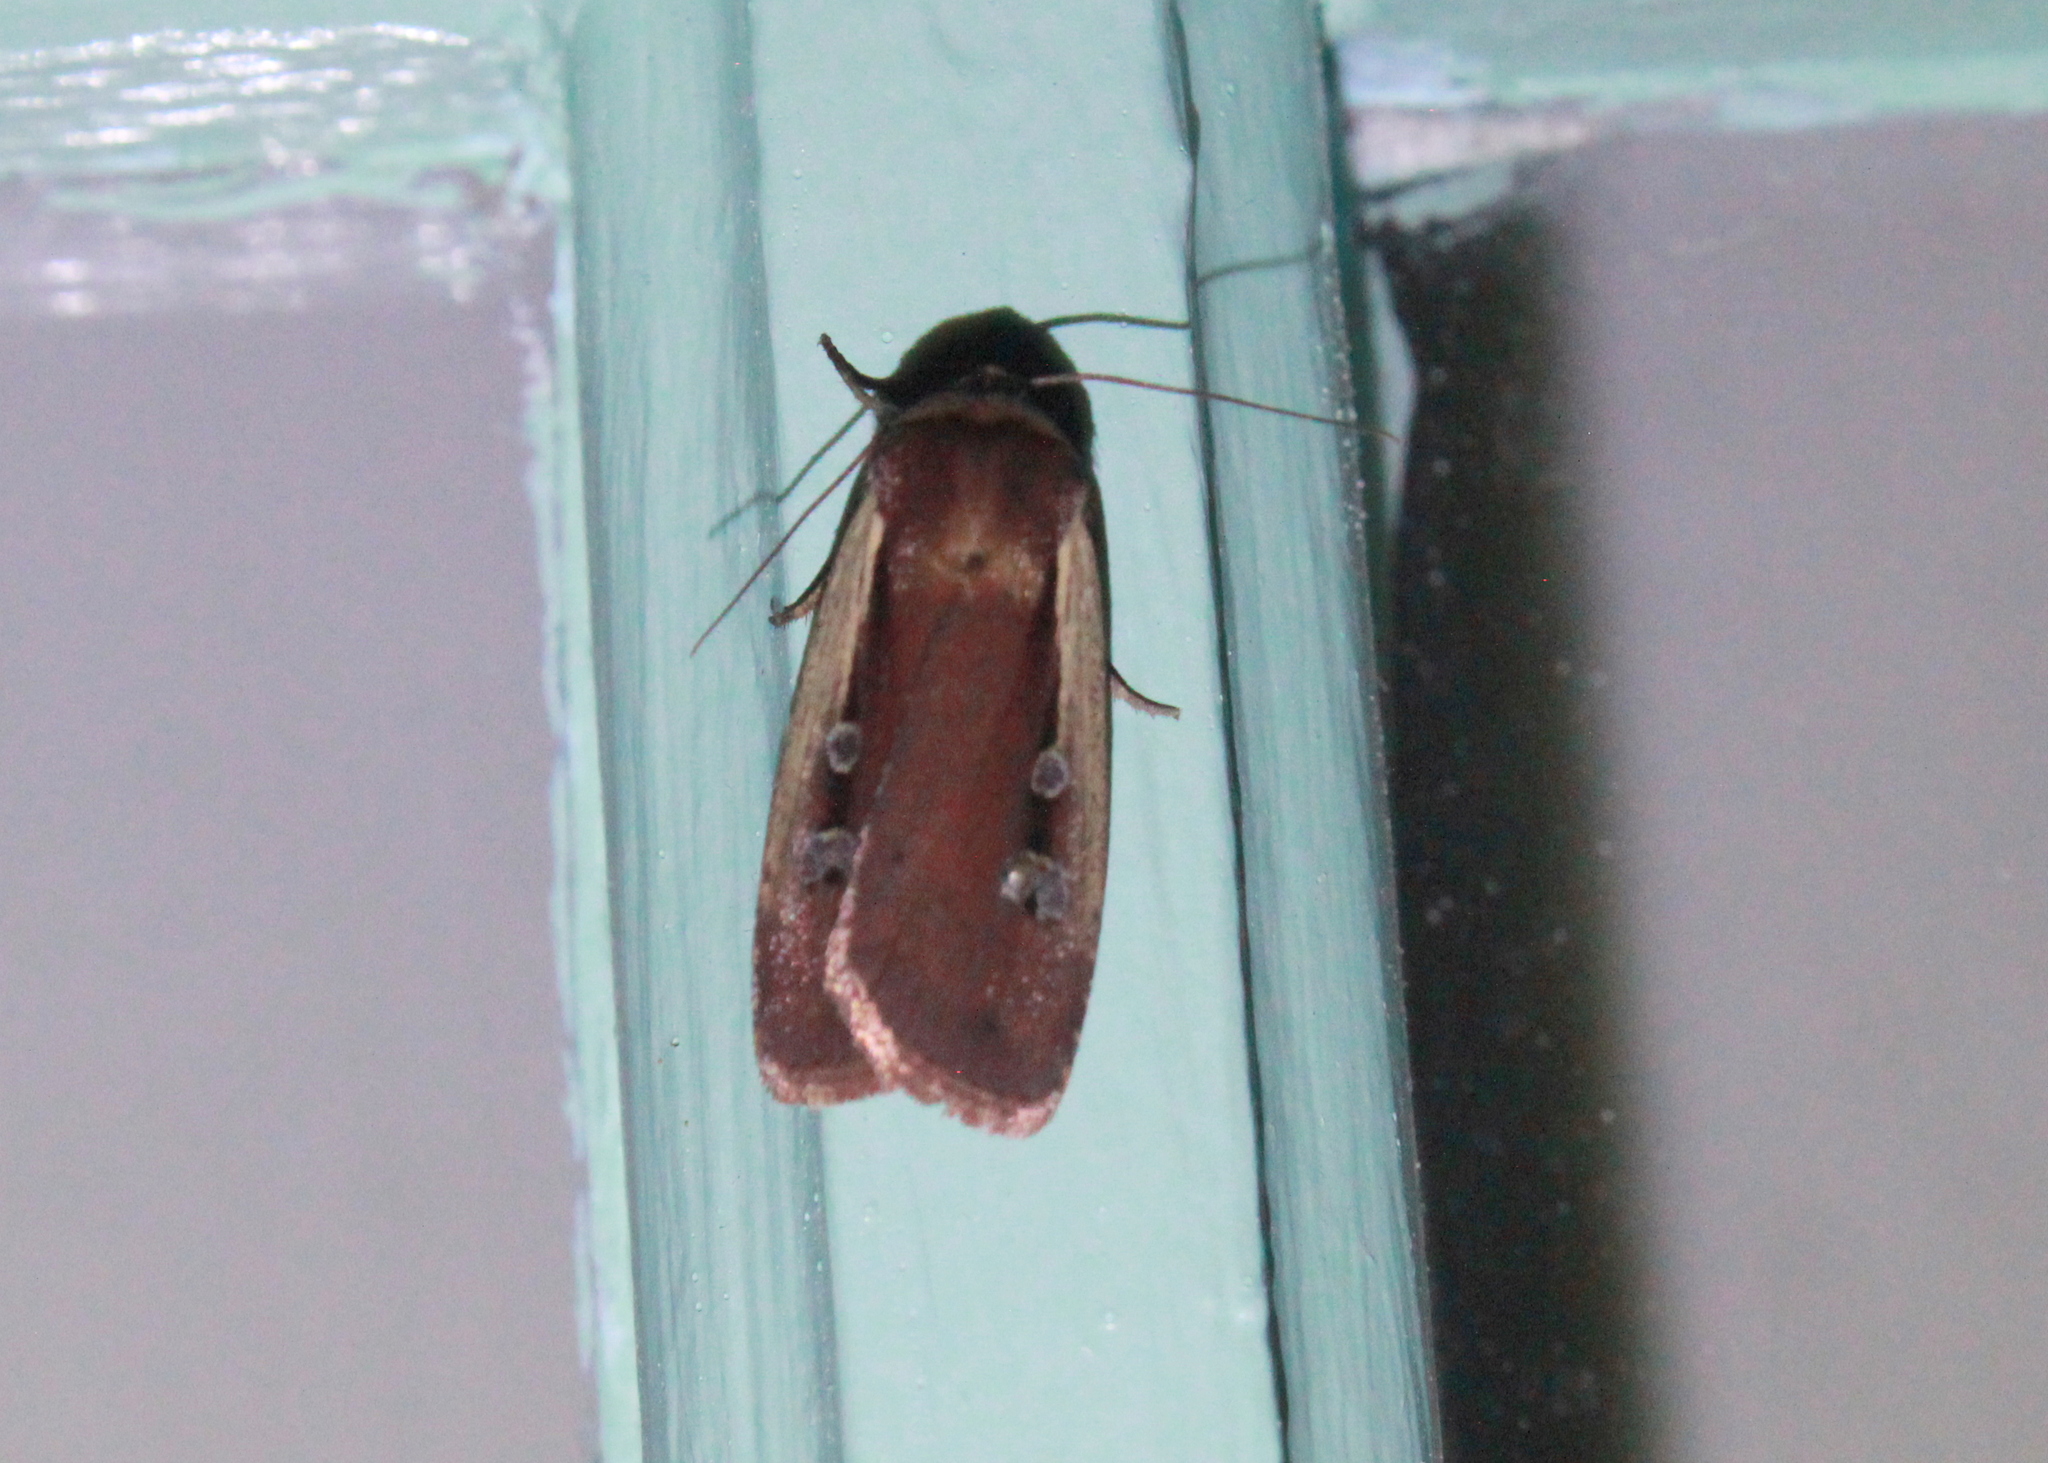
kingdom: Animalia
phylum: Arthropoda
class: Insecta
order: Lepidoptera
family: Noctuidae
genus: Ochropleura
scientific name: Ochropleura implecta
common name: Flame-shouldered dart
